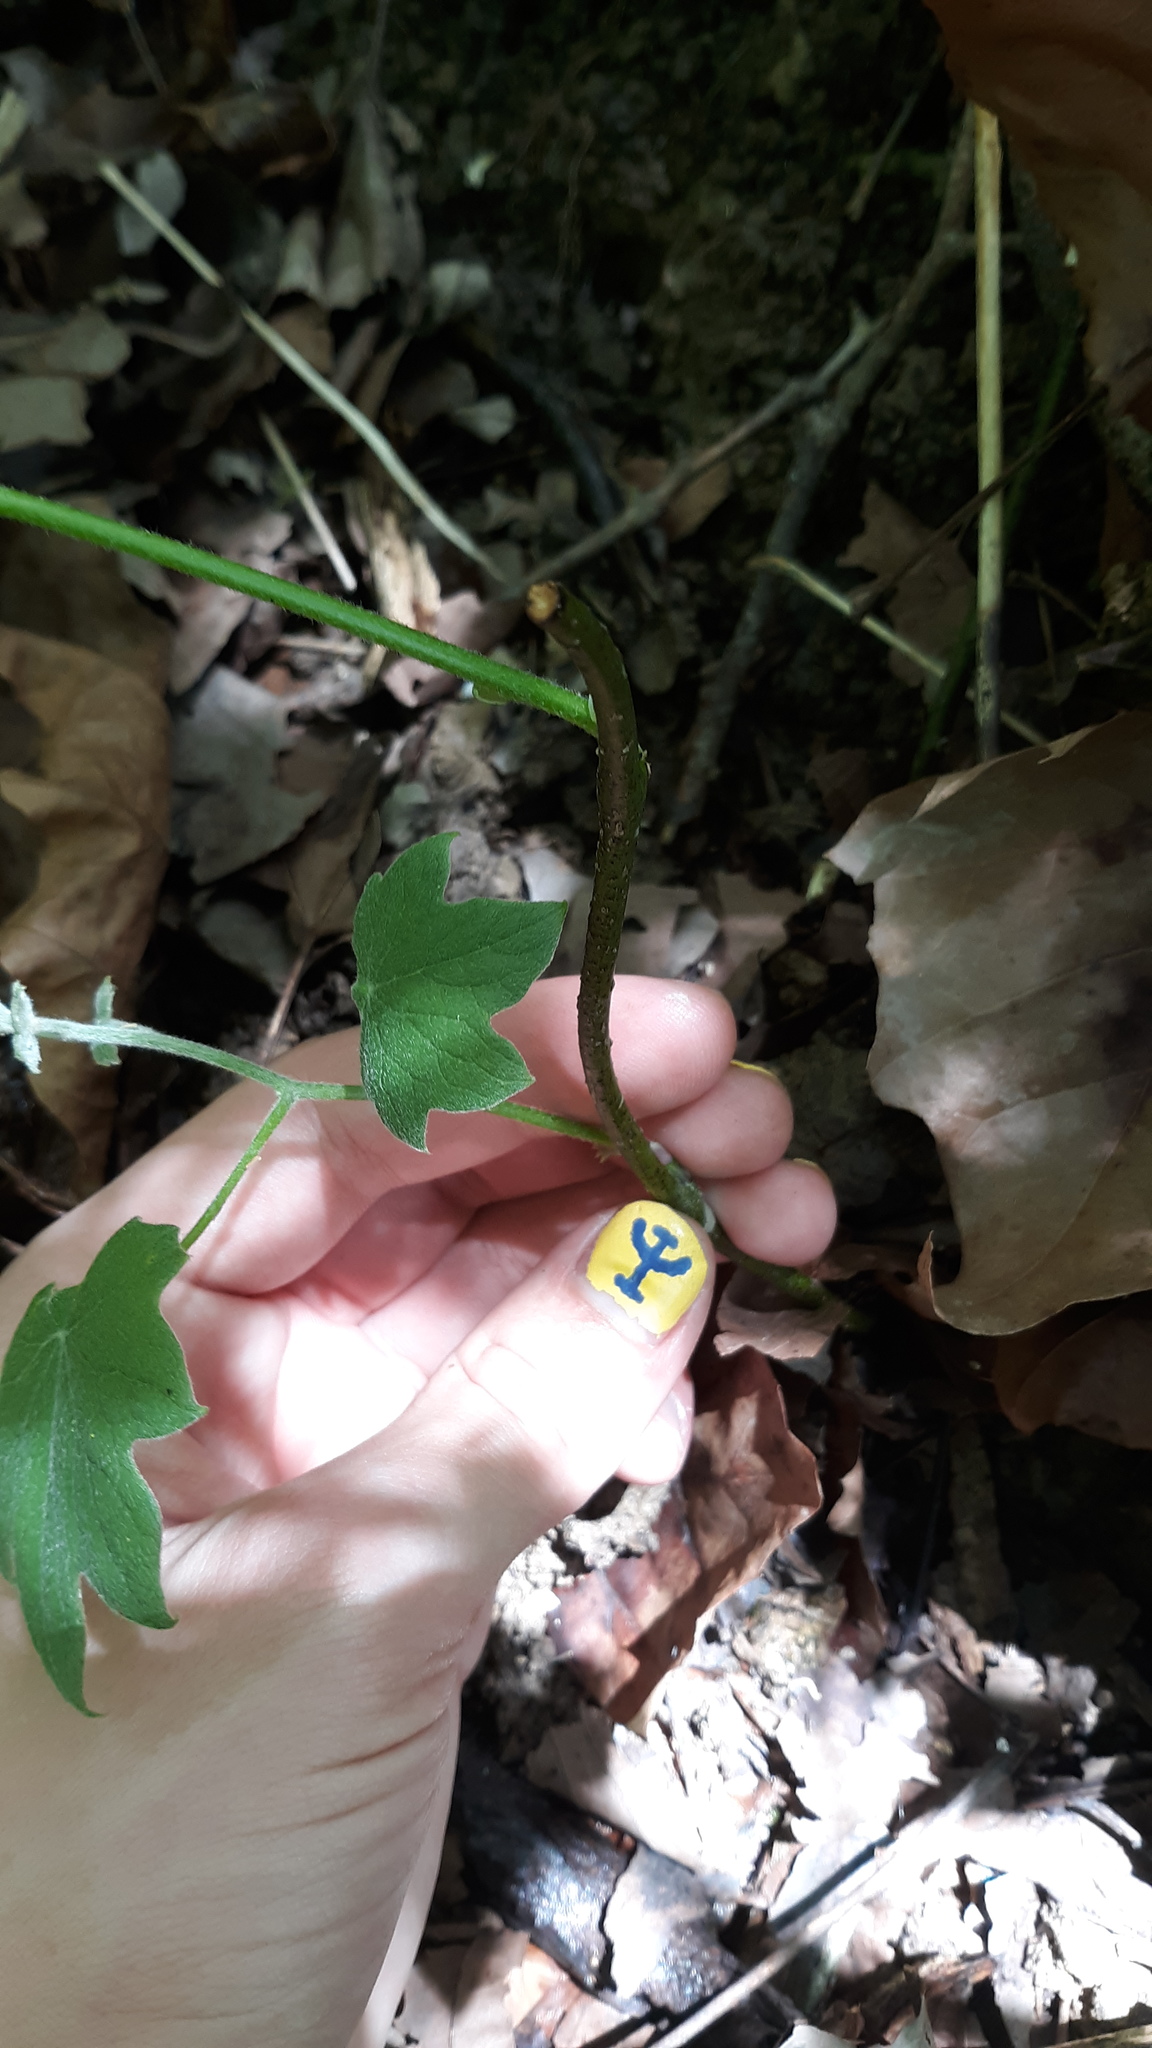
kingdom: Plantae
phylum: Tracheophyta
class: Magnoliopsida
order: Ranunculales
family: Menispermaceae
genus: Menispermum
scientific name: Menispermum canadense
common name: Moonseed
